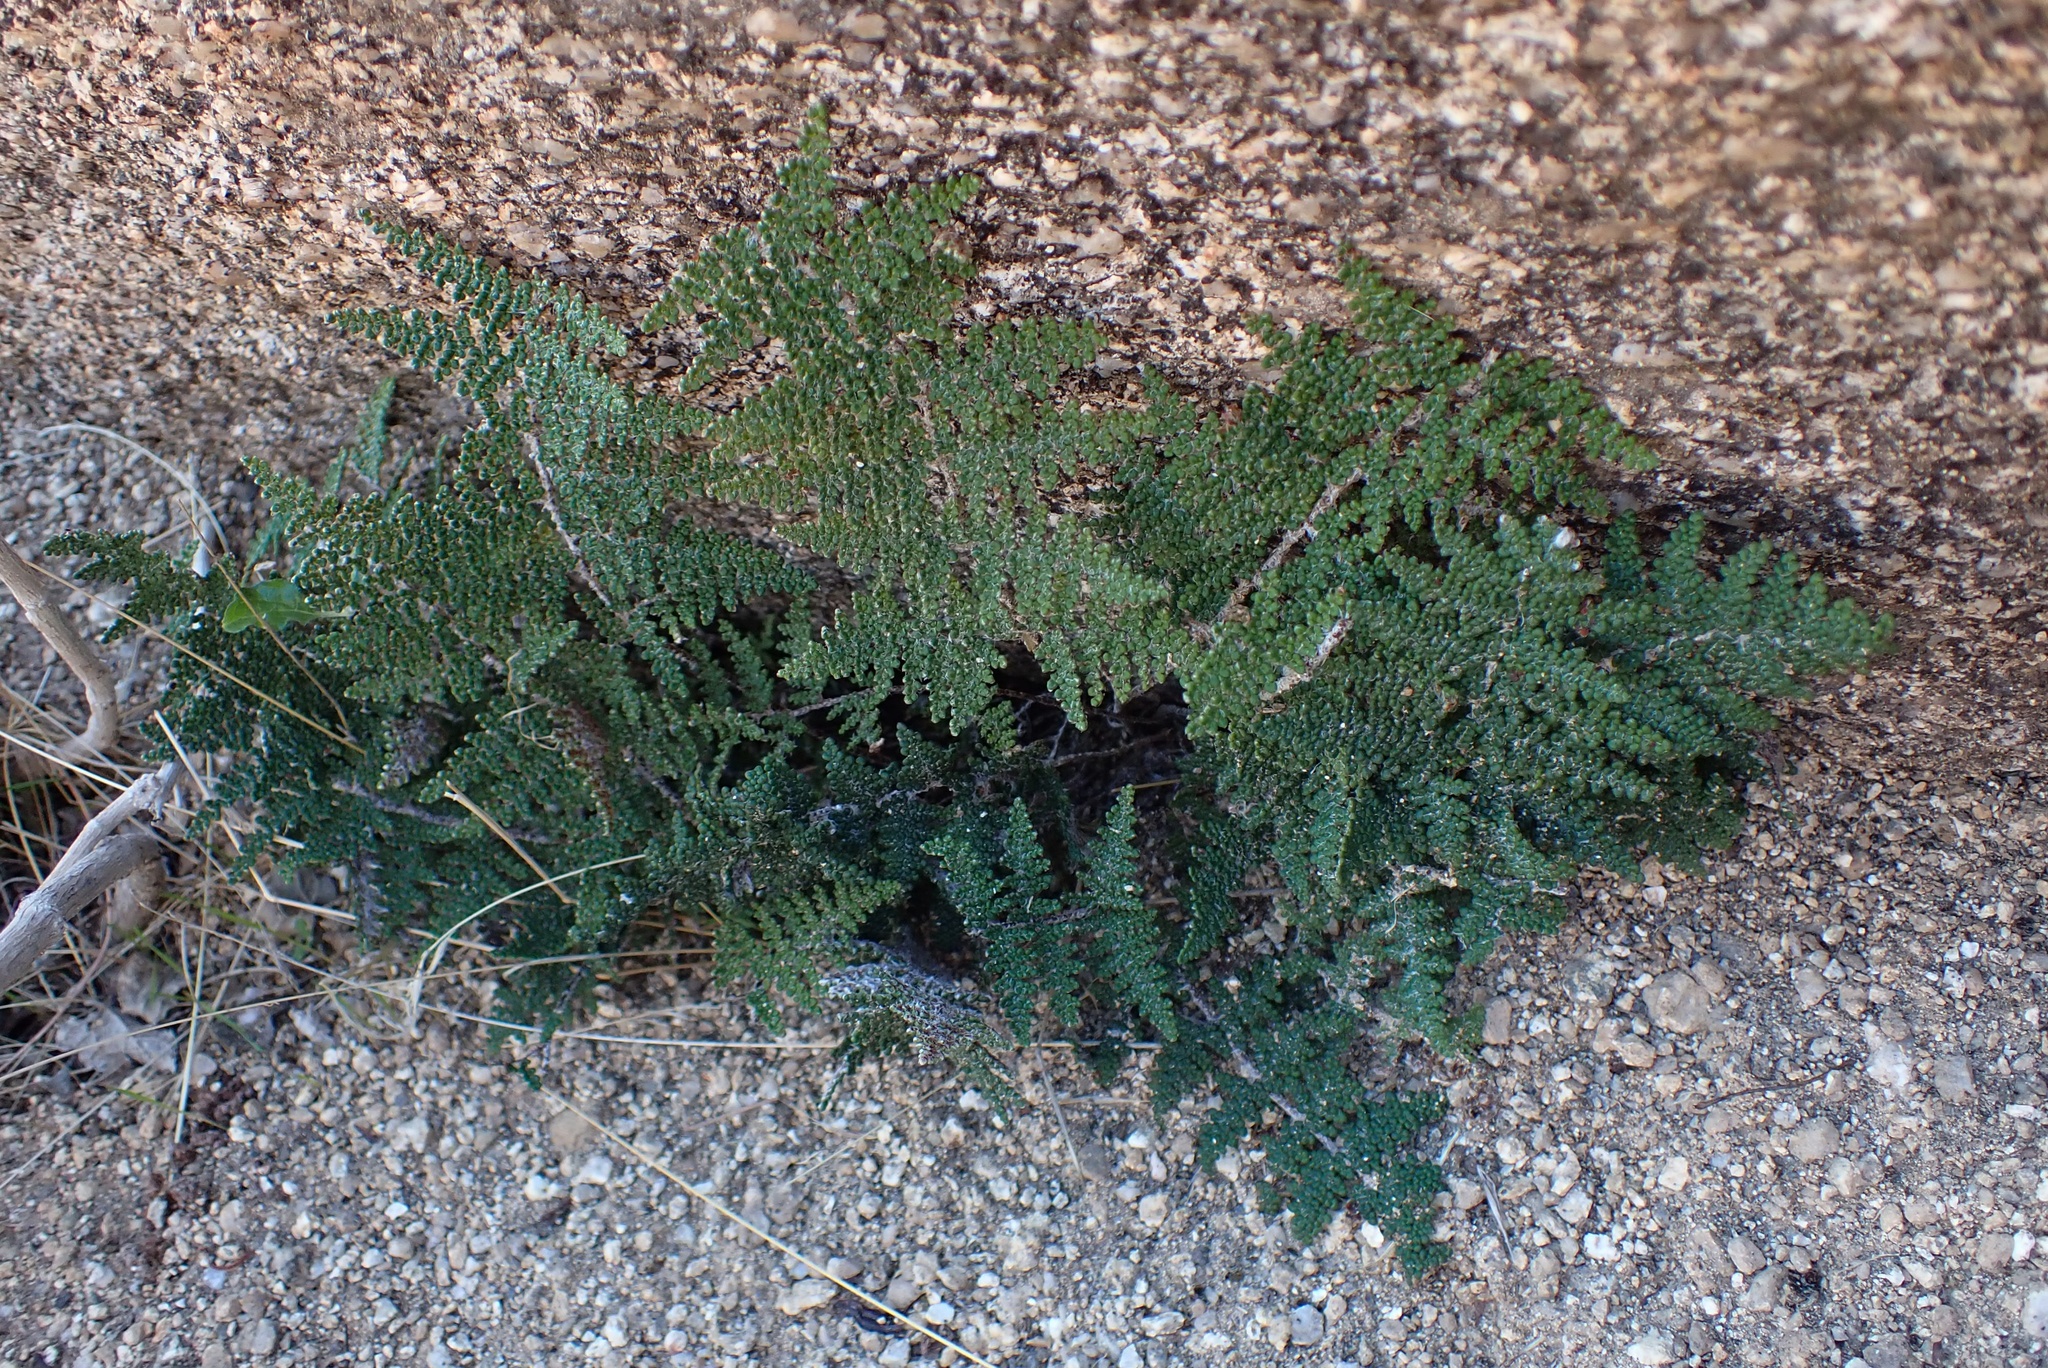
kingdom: Plantae
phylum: Tracheophyta
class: Polypodiopsida
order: Polypodiales
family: Pteridaceae
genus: Myriopteris
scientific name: Myriopteris covillei
